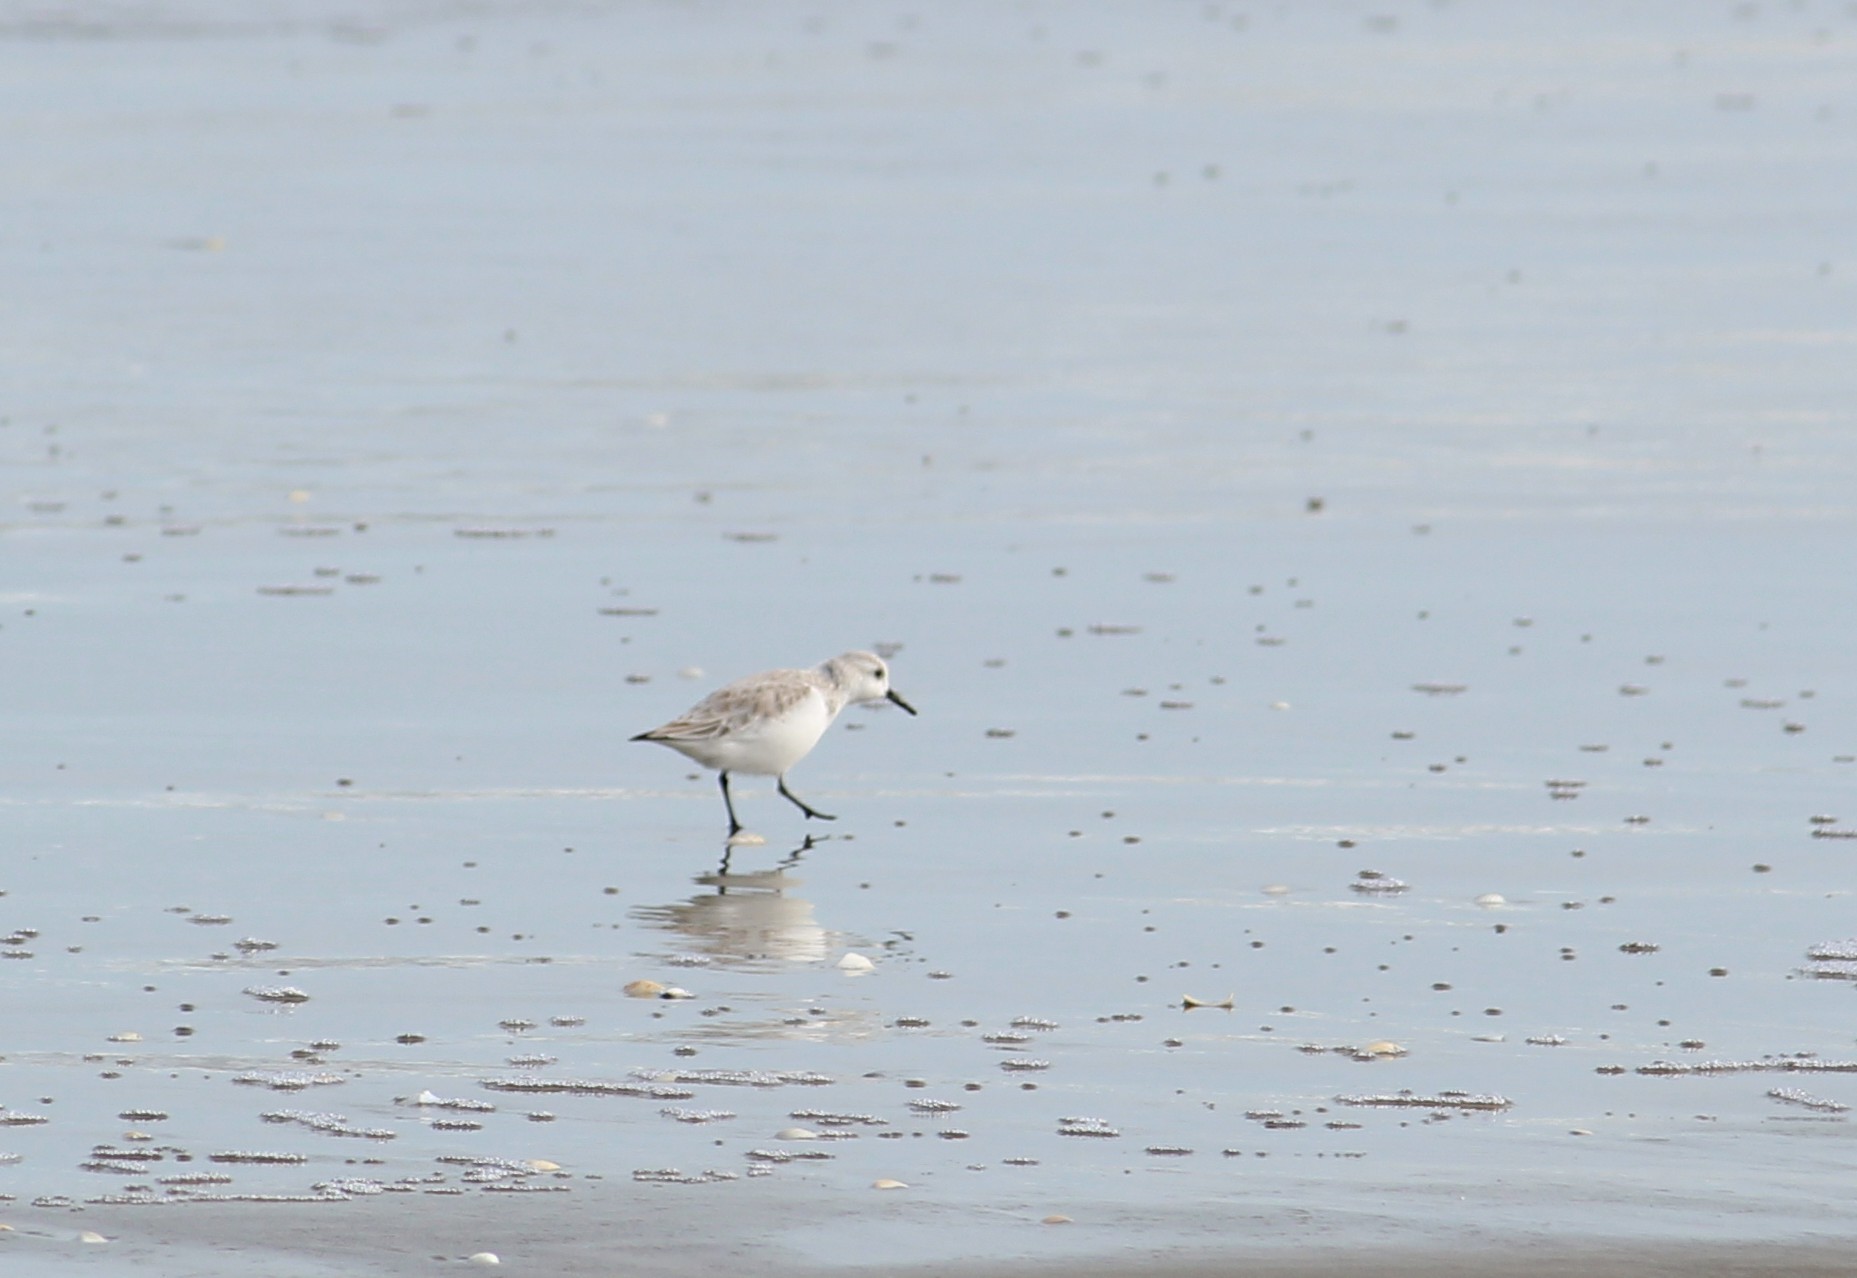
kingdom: Animalia
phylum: Chordata
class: Aves
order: Charadriiformes
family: Scolopacidae
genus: Calidris
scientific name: Calidris alba
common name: Sanderling
